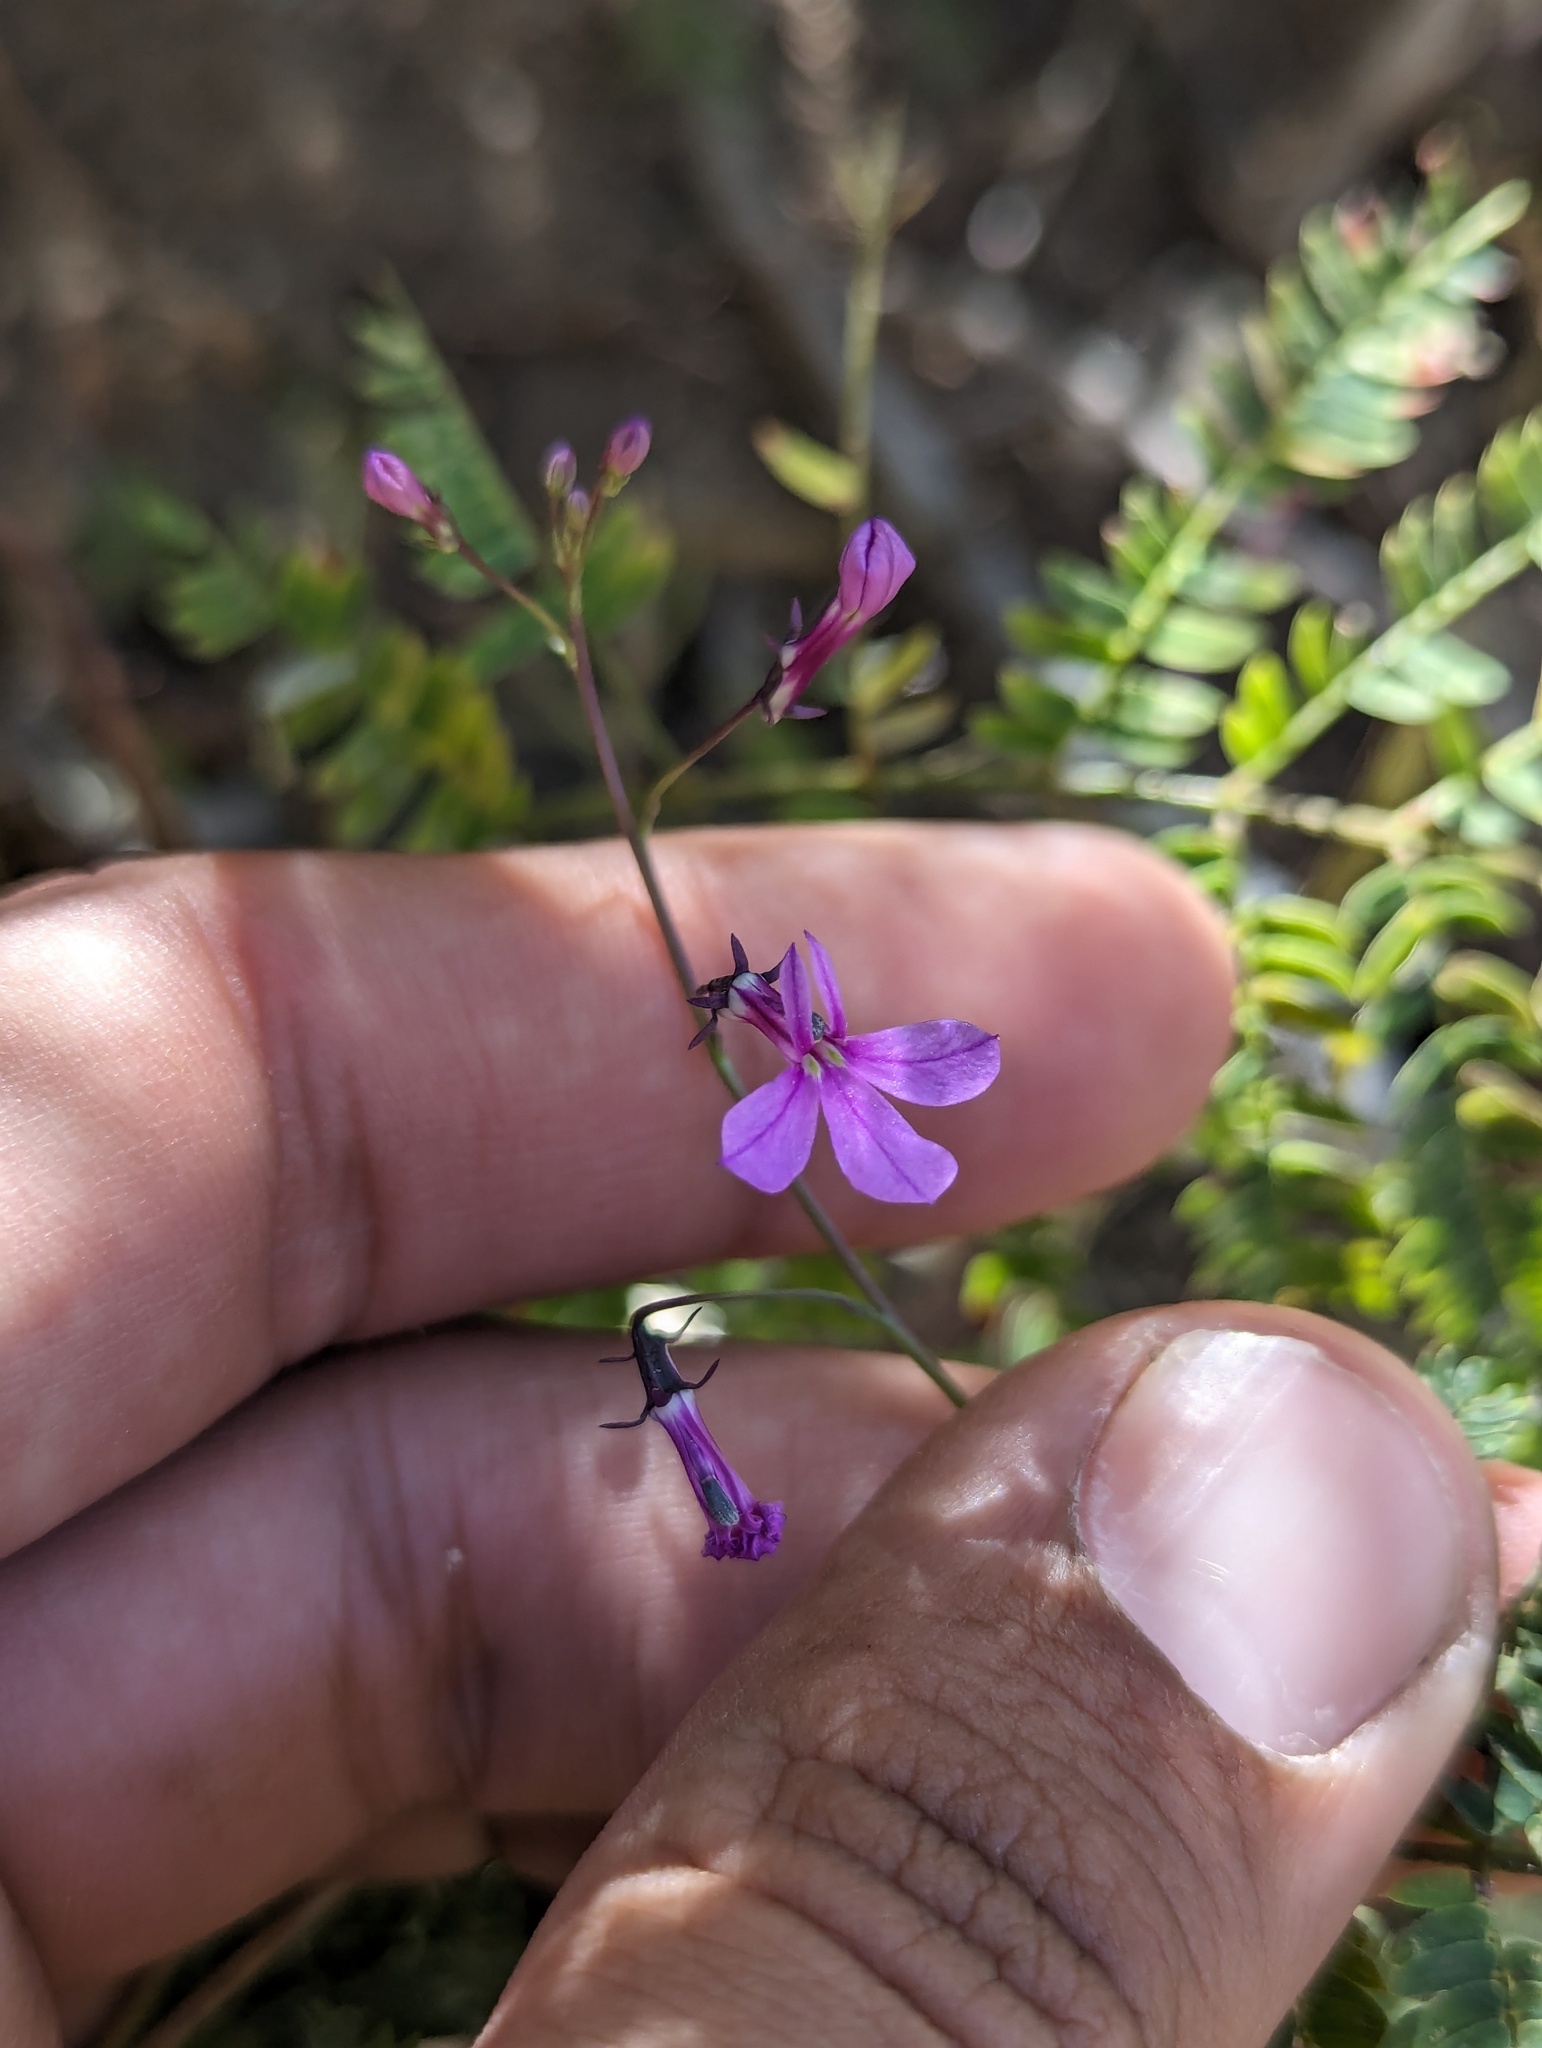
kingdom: Plantae
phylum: Tracheophyta
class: Magnoliopsida
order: Asterales
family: Campanulaceae
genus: Lobelia
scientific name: Lobelia aurita
